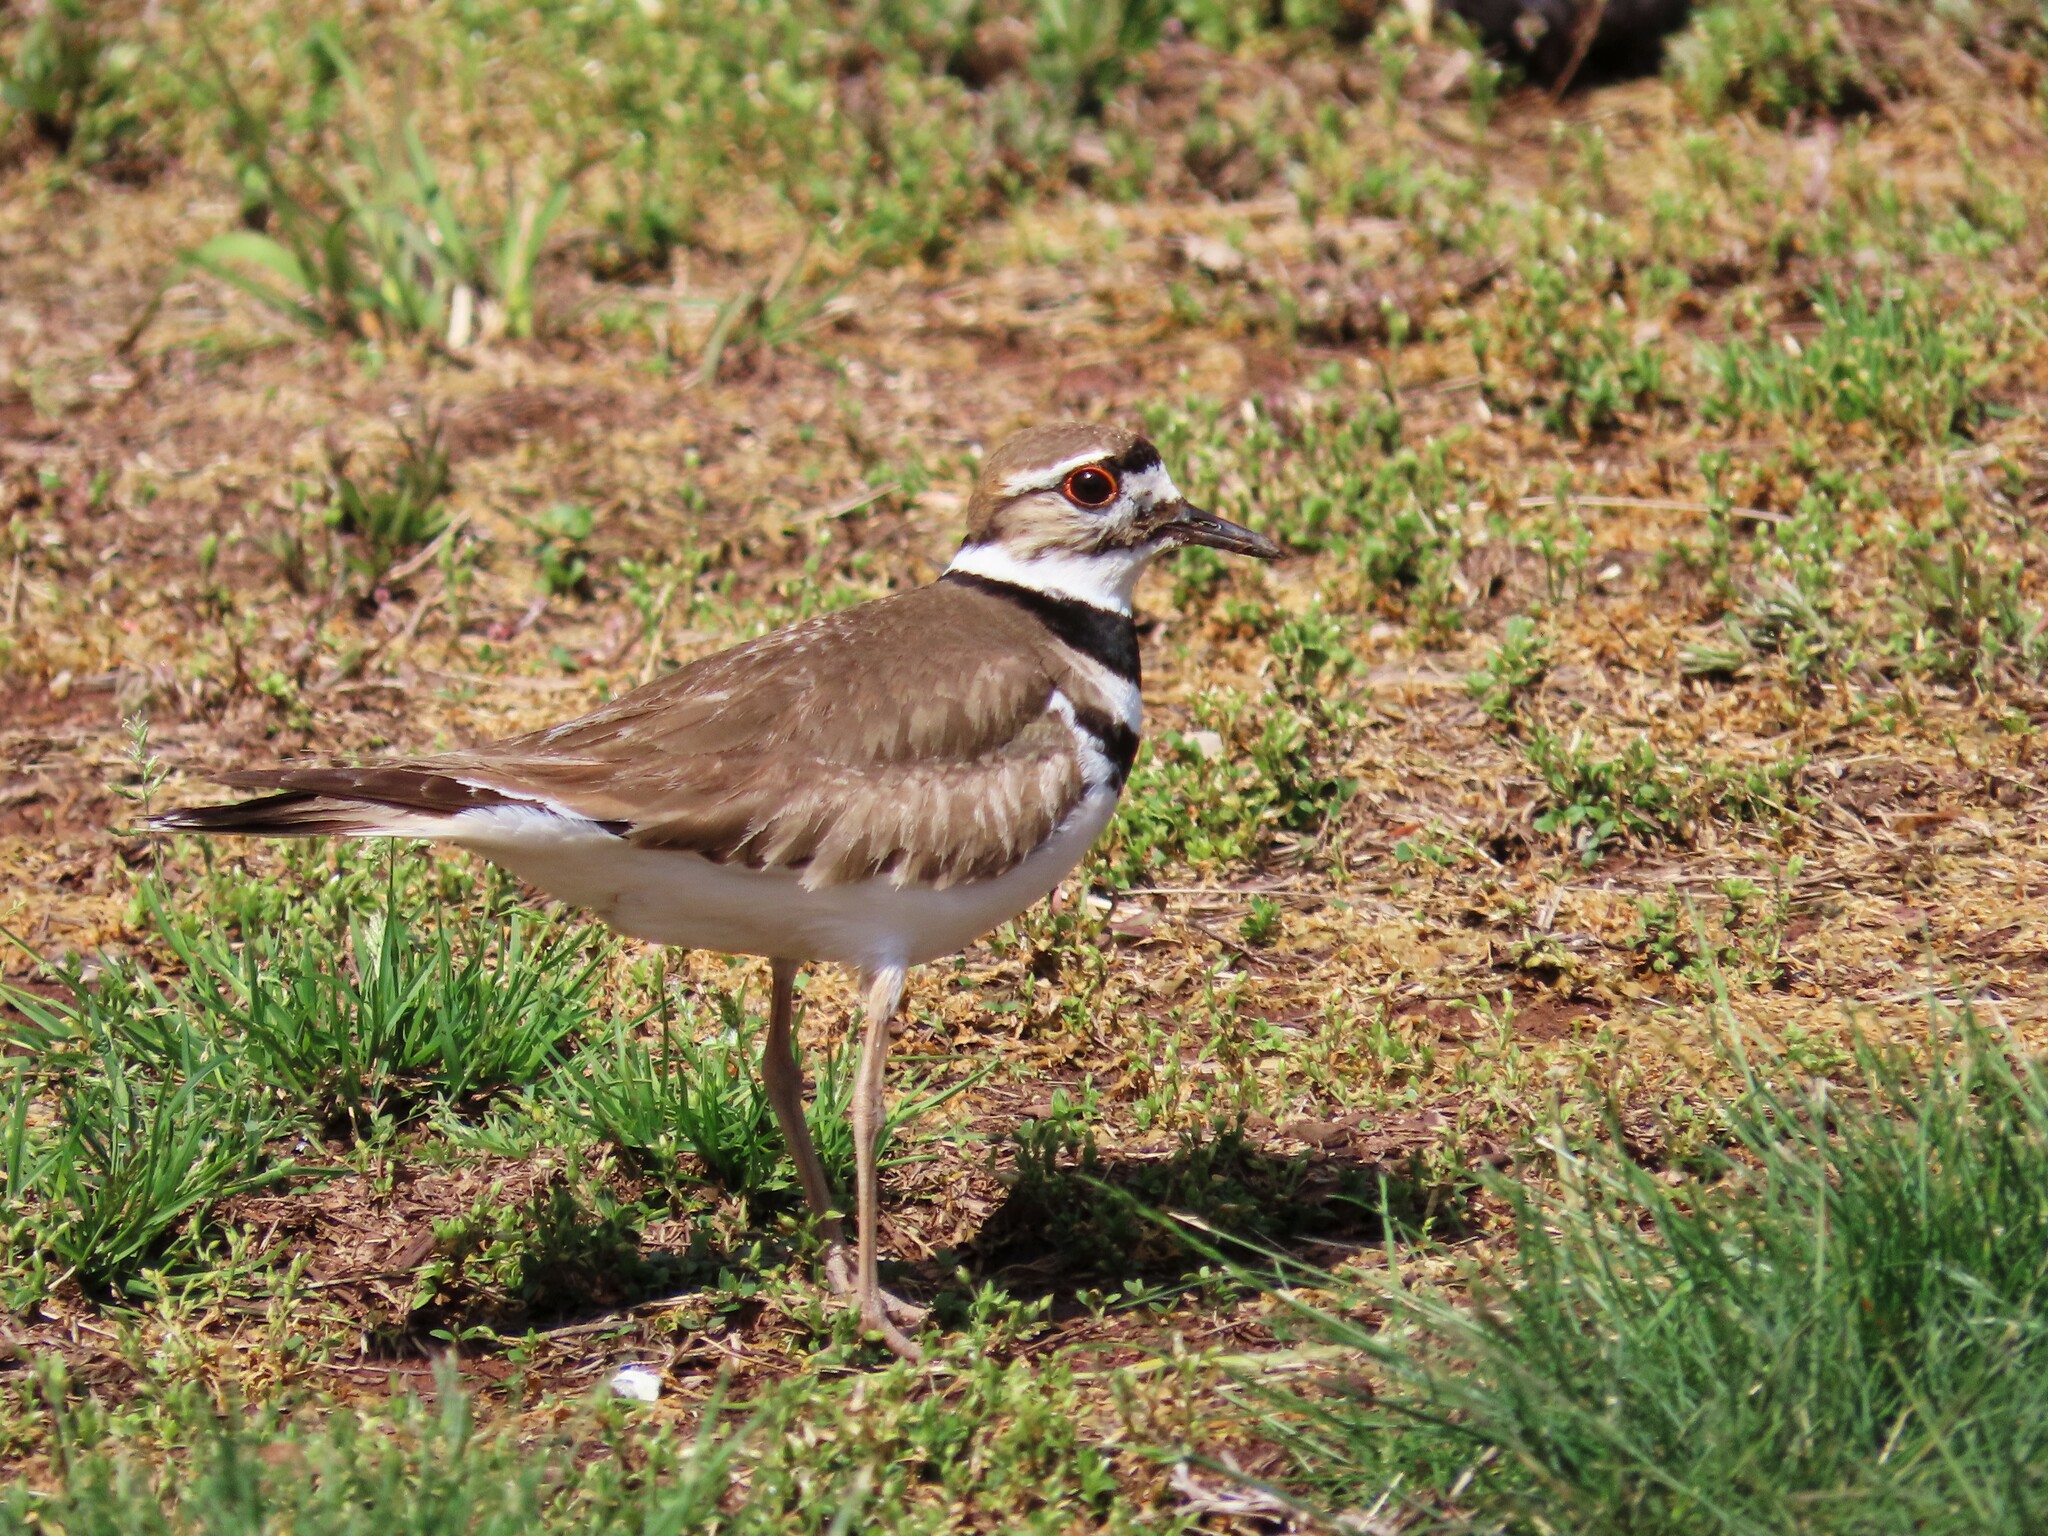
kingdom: Animalia
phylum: Chordata
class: Aves
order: Charadriiformes
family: Charadriidae
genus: Charadrius
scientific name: Charadrius vociferus
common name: Killdeer
